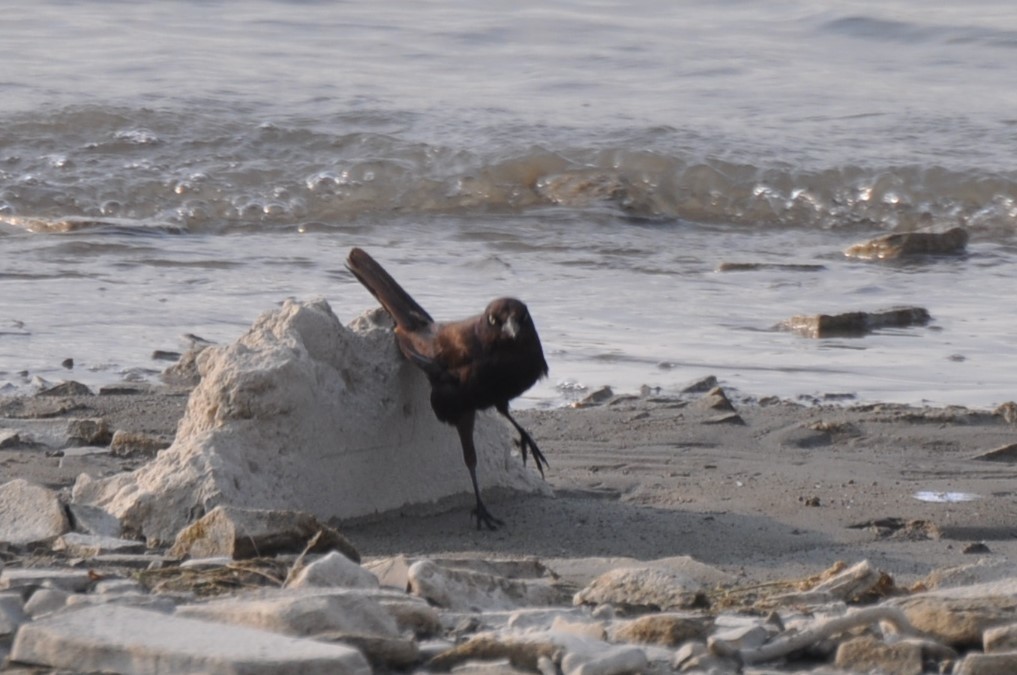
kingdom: Animalia
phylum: Chordata
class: Aves
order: Passeriformes
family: Icteridae
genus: Quiscalus
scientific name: Quiscalus quiscula
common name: Common grackle
